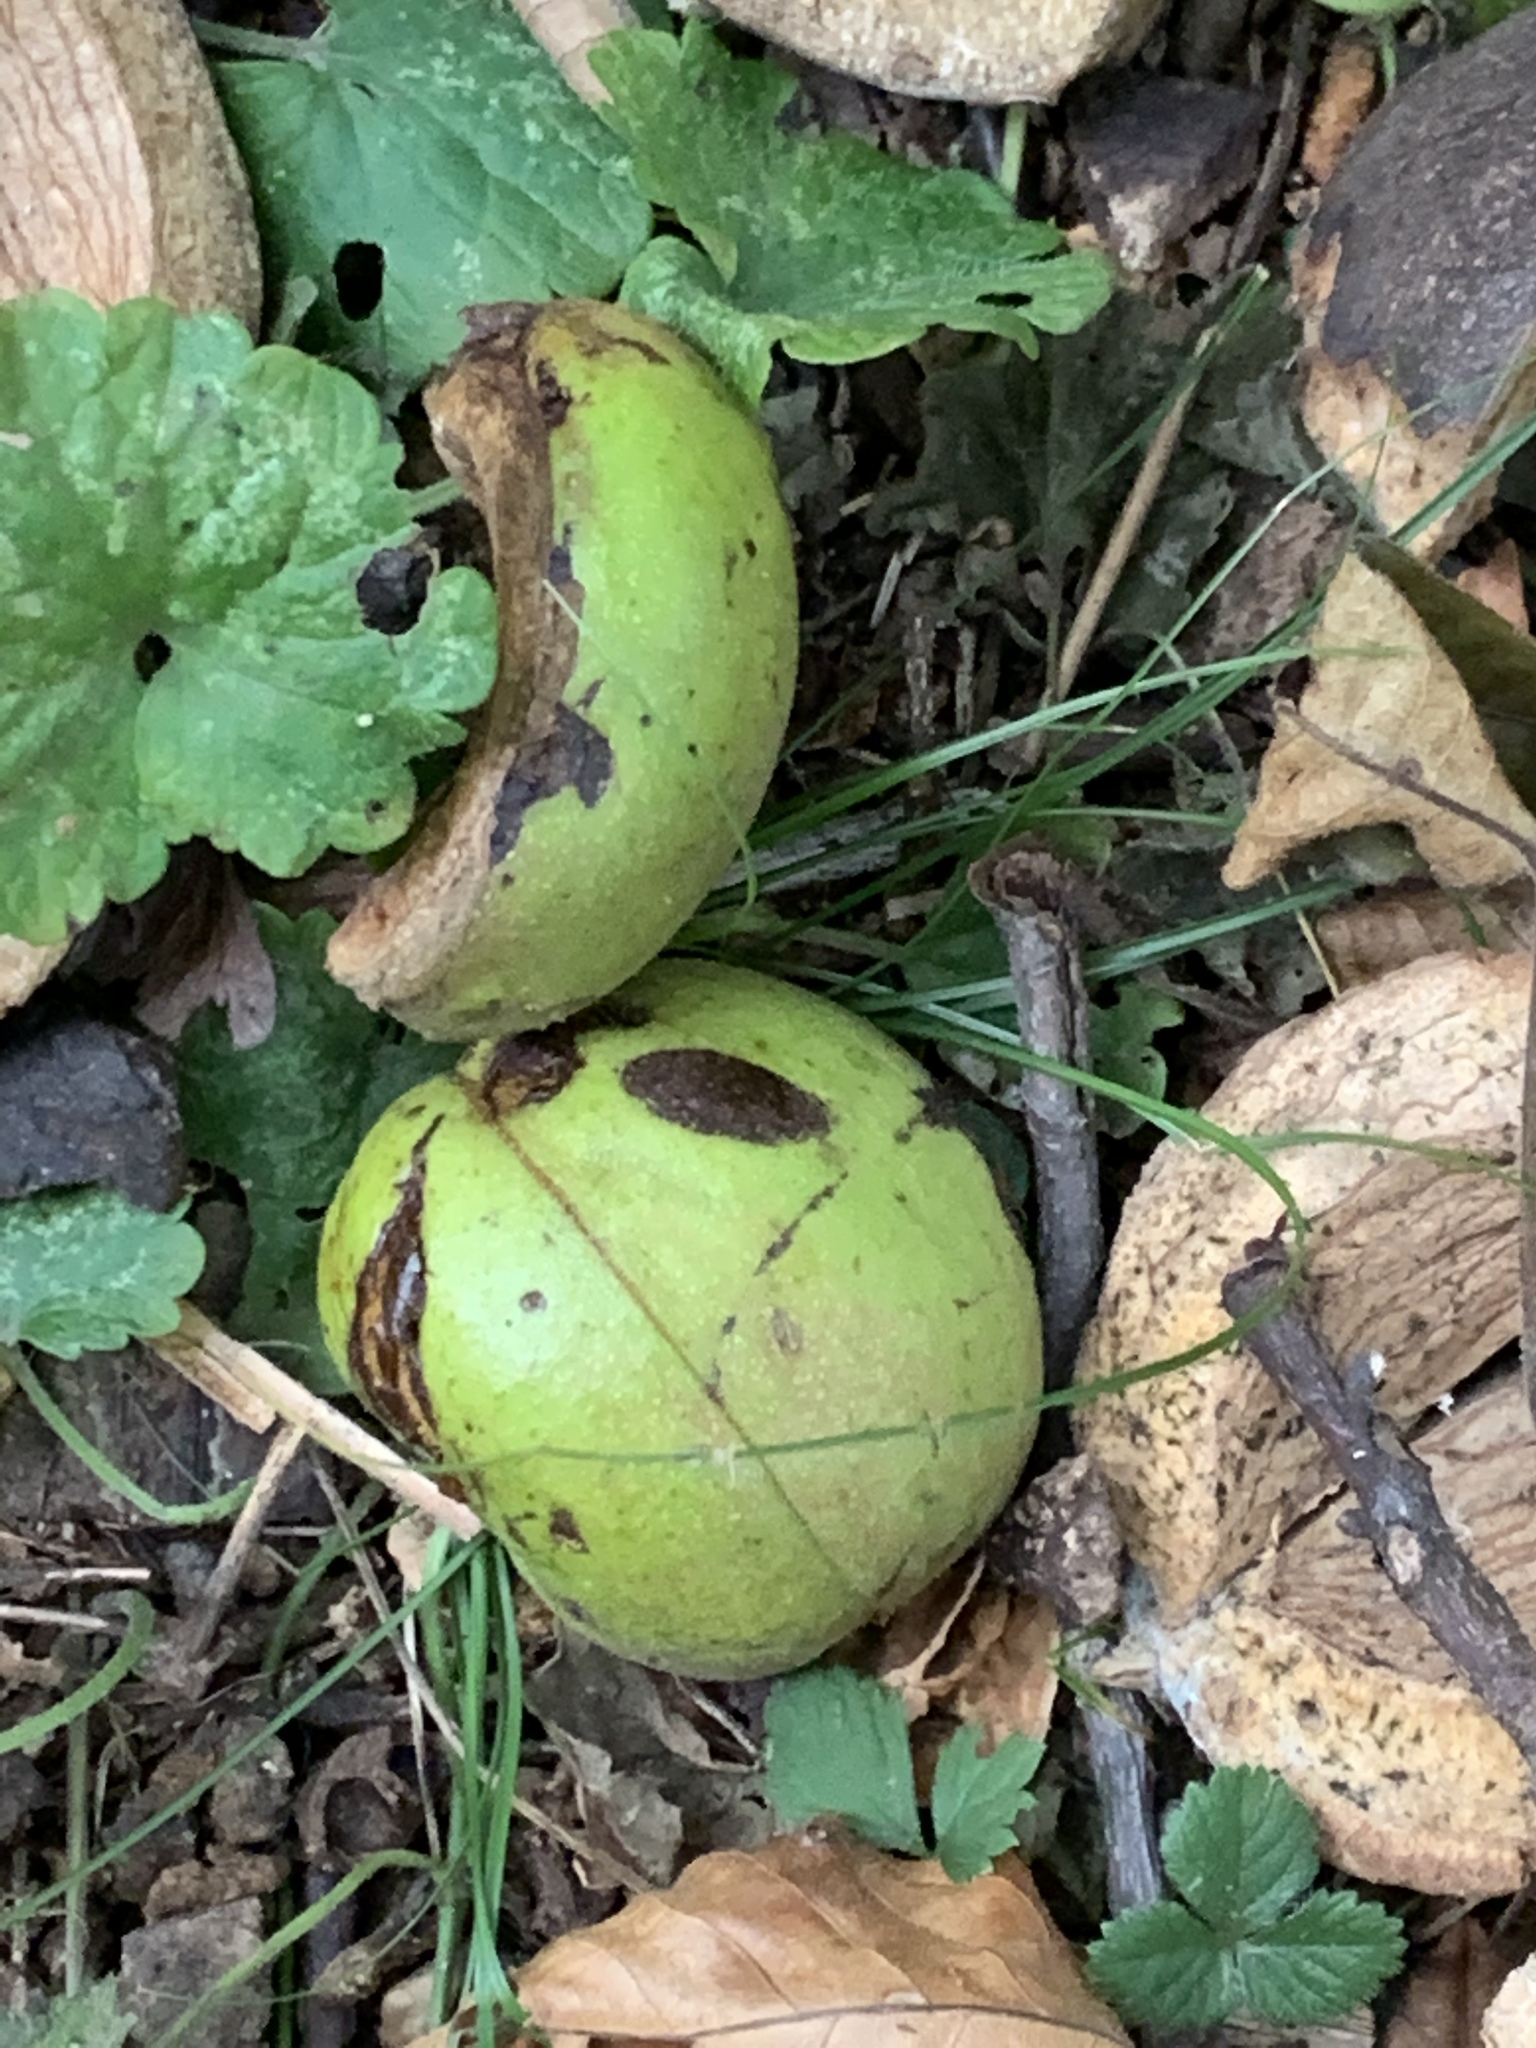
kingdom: Plantae
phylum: Tracheophyta
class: Magnoliopsida
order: Fagales
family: Juglandaceae
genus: Carya
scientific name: Carya ovata
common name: Shagbark hickory
